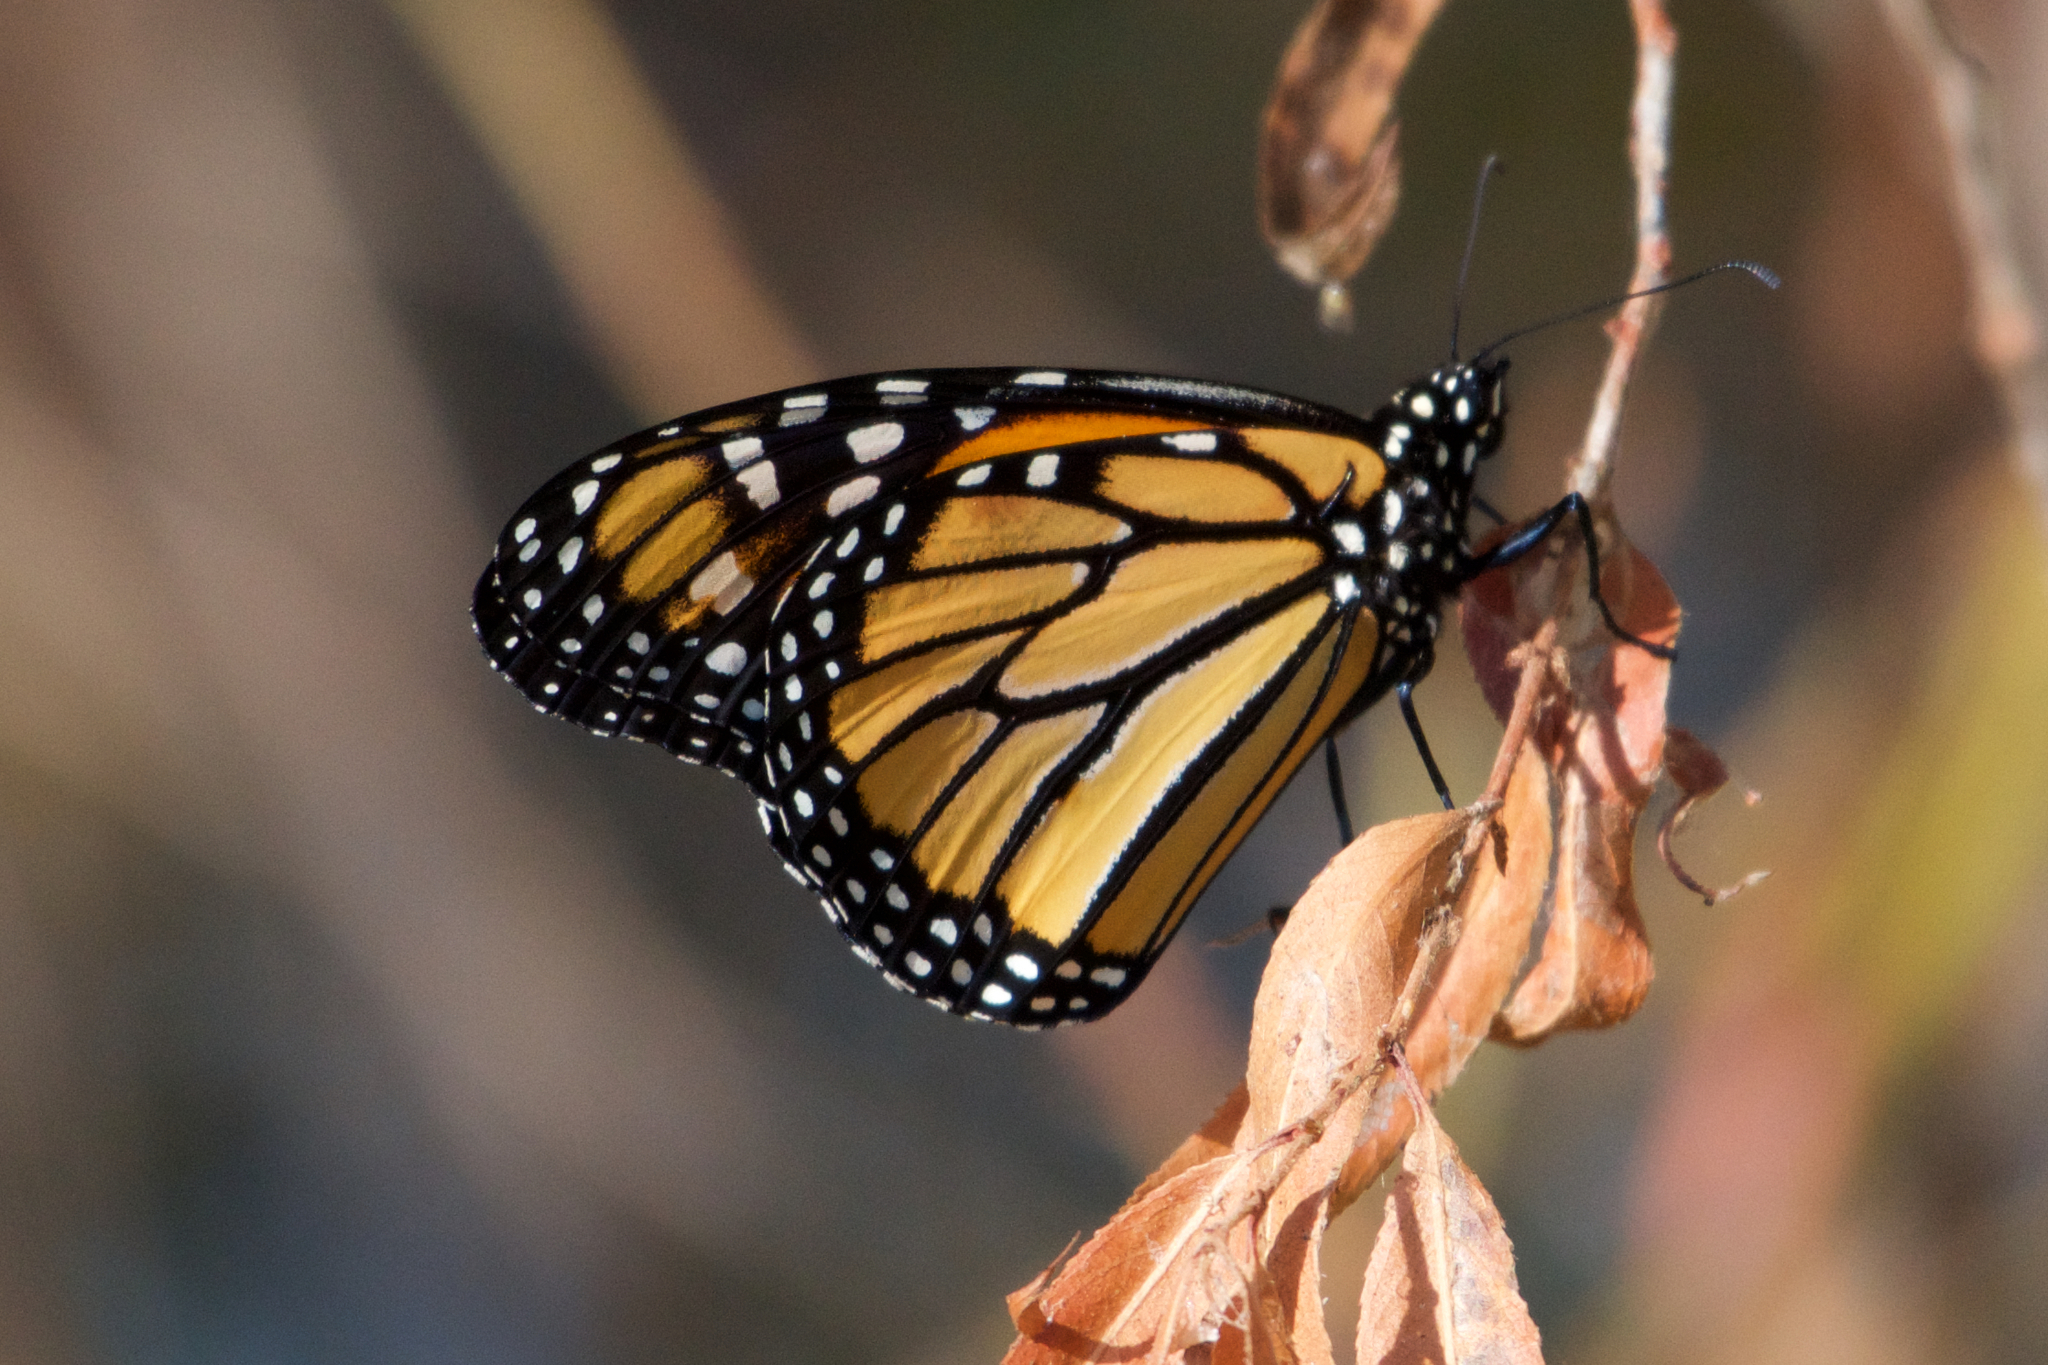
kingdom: Animalia
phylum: Arthropoda
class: Insecta
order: Lepidoptera
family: Nymphalidae
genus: Danaus
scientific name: Danaus plexippus
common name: Monarch
